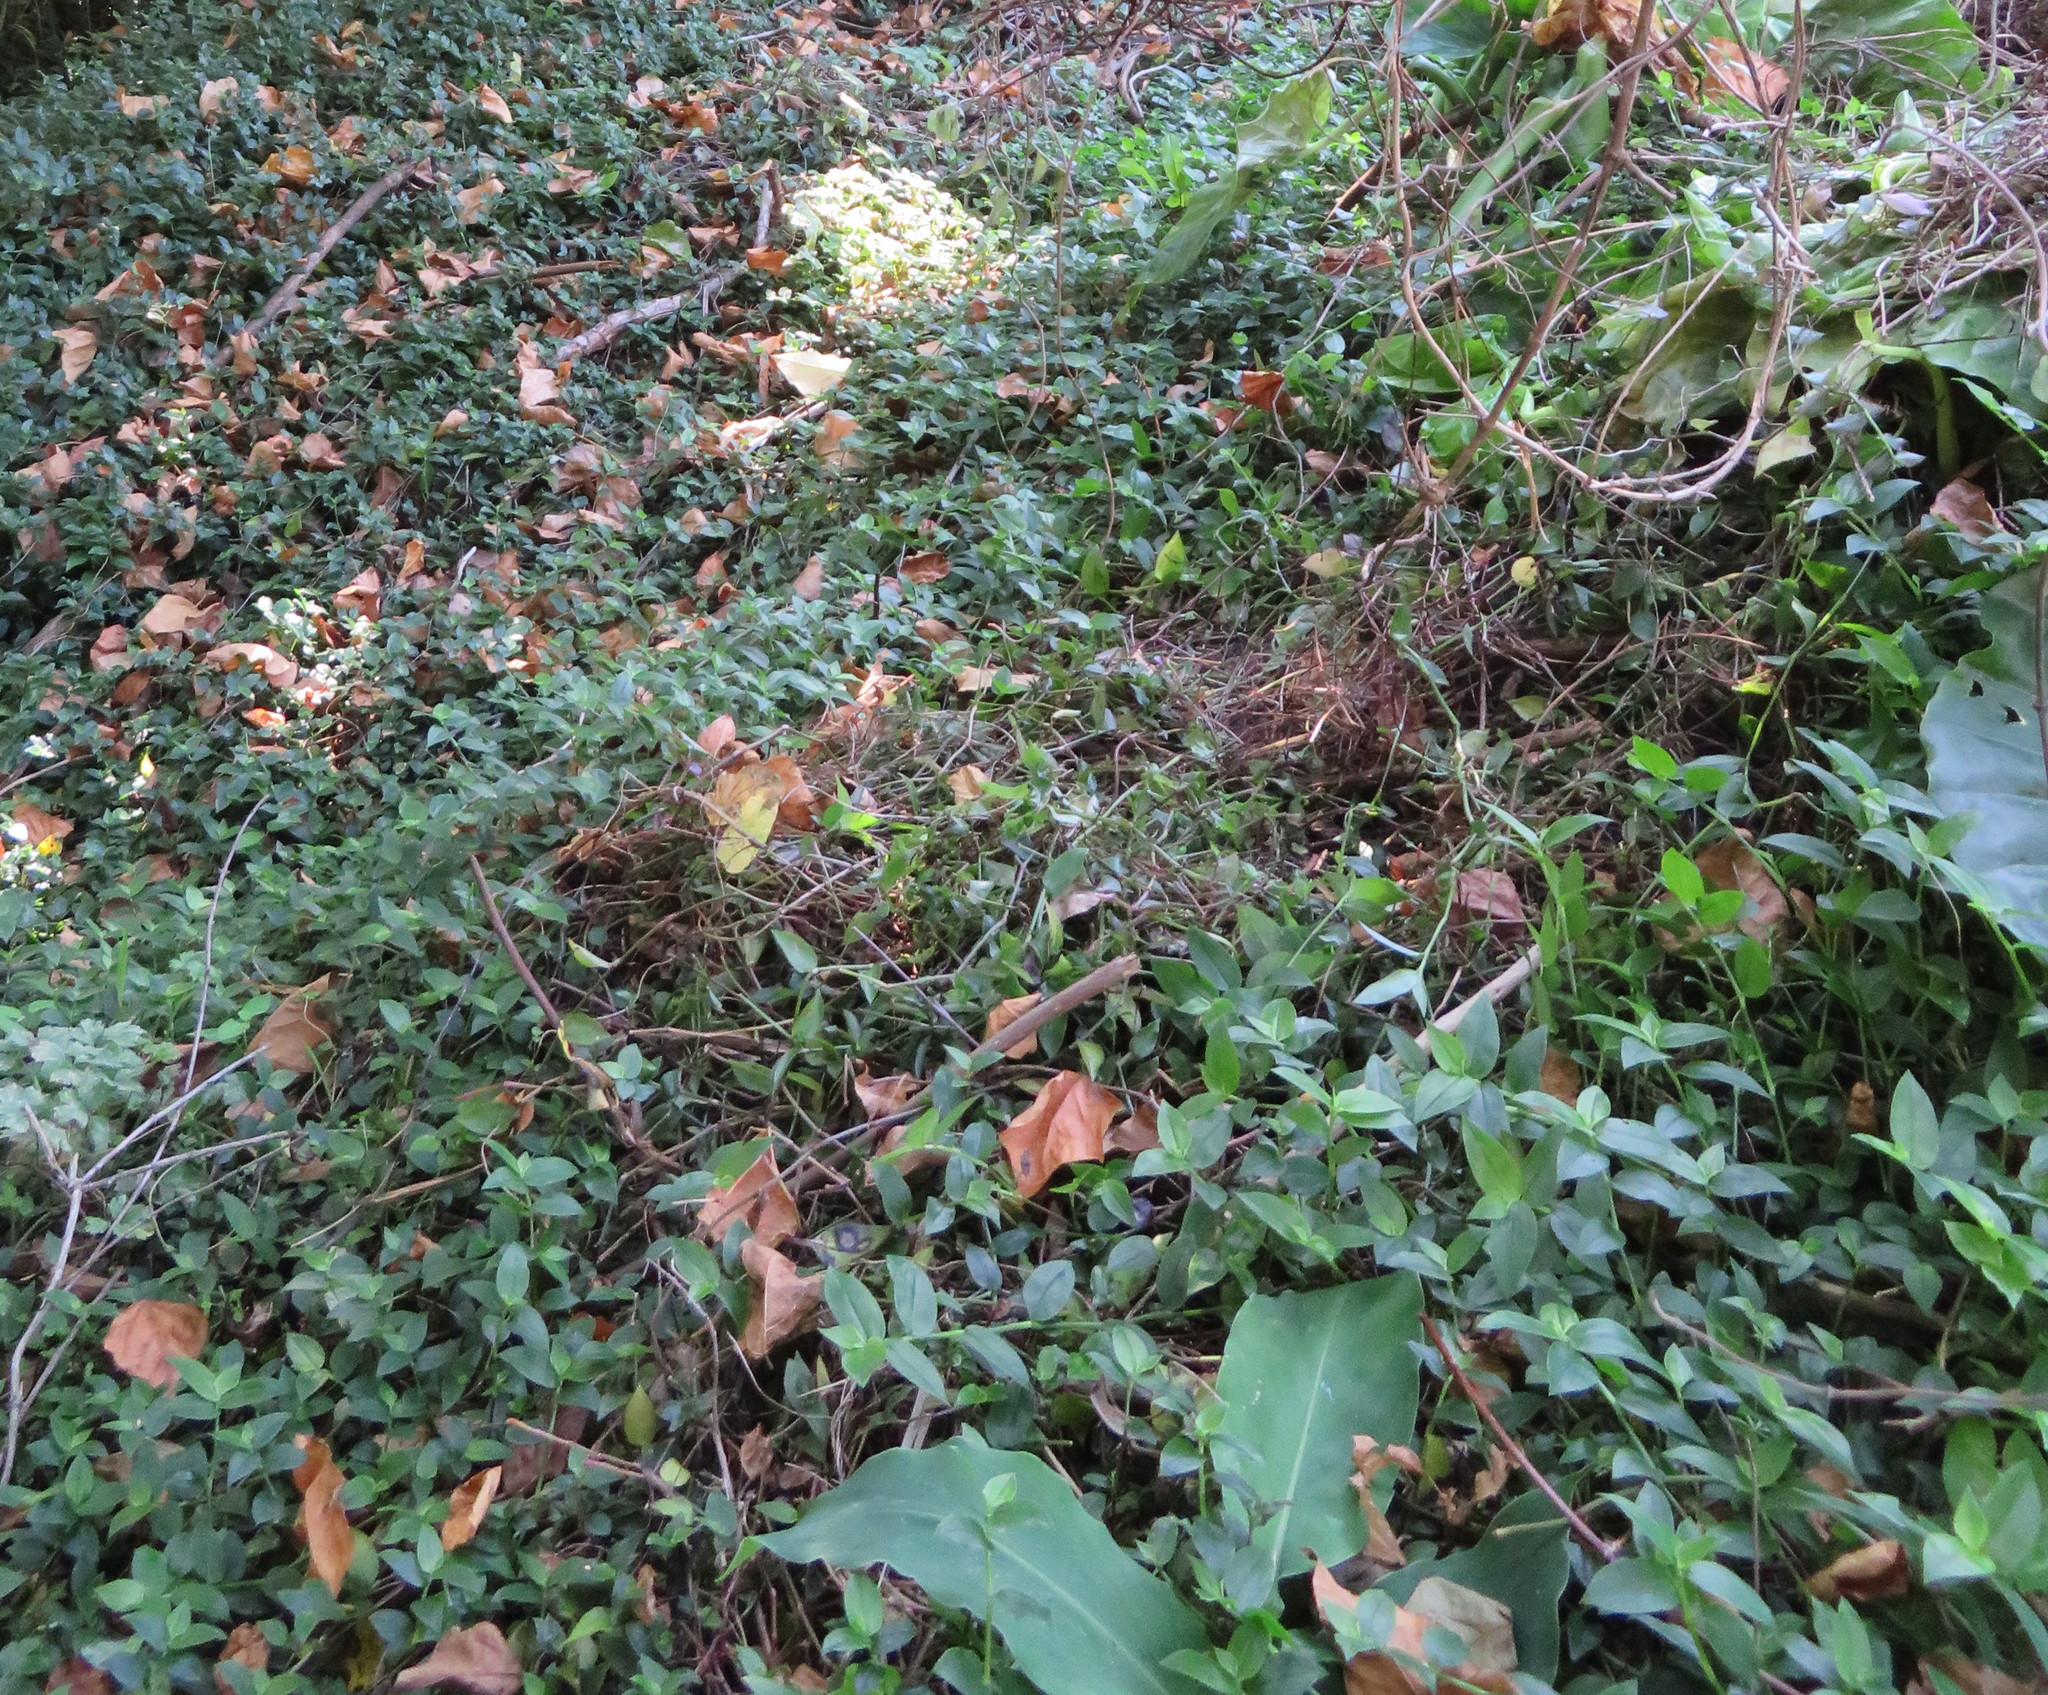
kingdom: Plantae
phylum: Tracheophyta
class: Liliopsida
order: Commelinales
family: Commelinaceae
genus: Tradescantia
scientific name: Tradescantia fluminensis
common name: Wandering-jew
